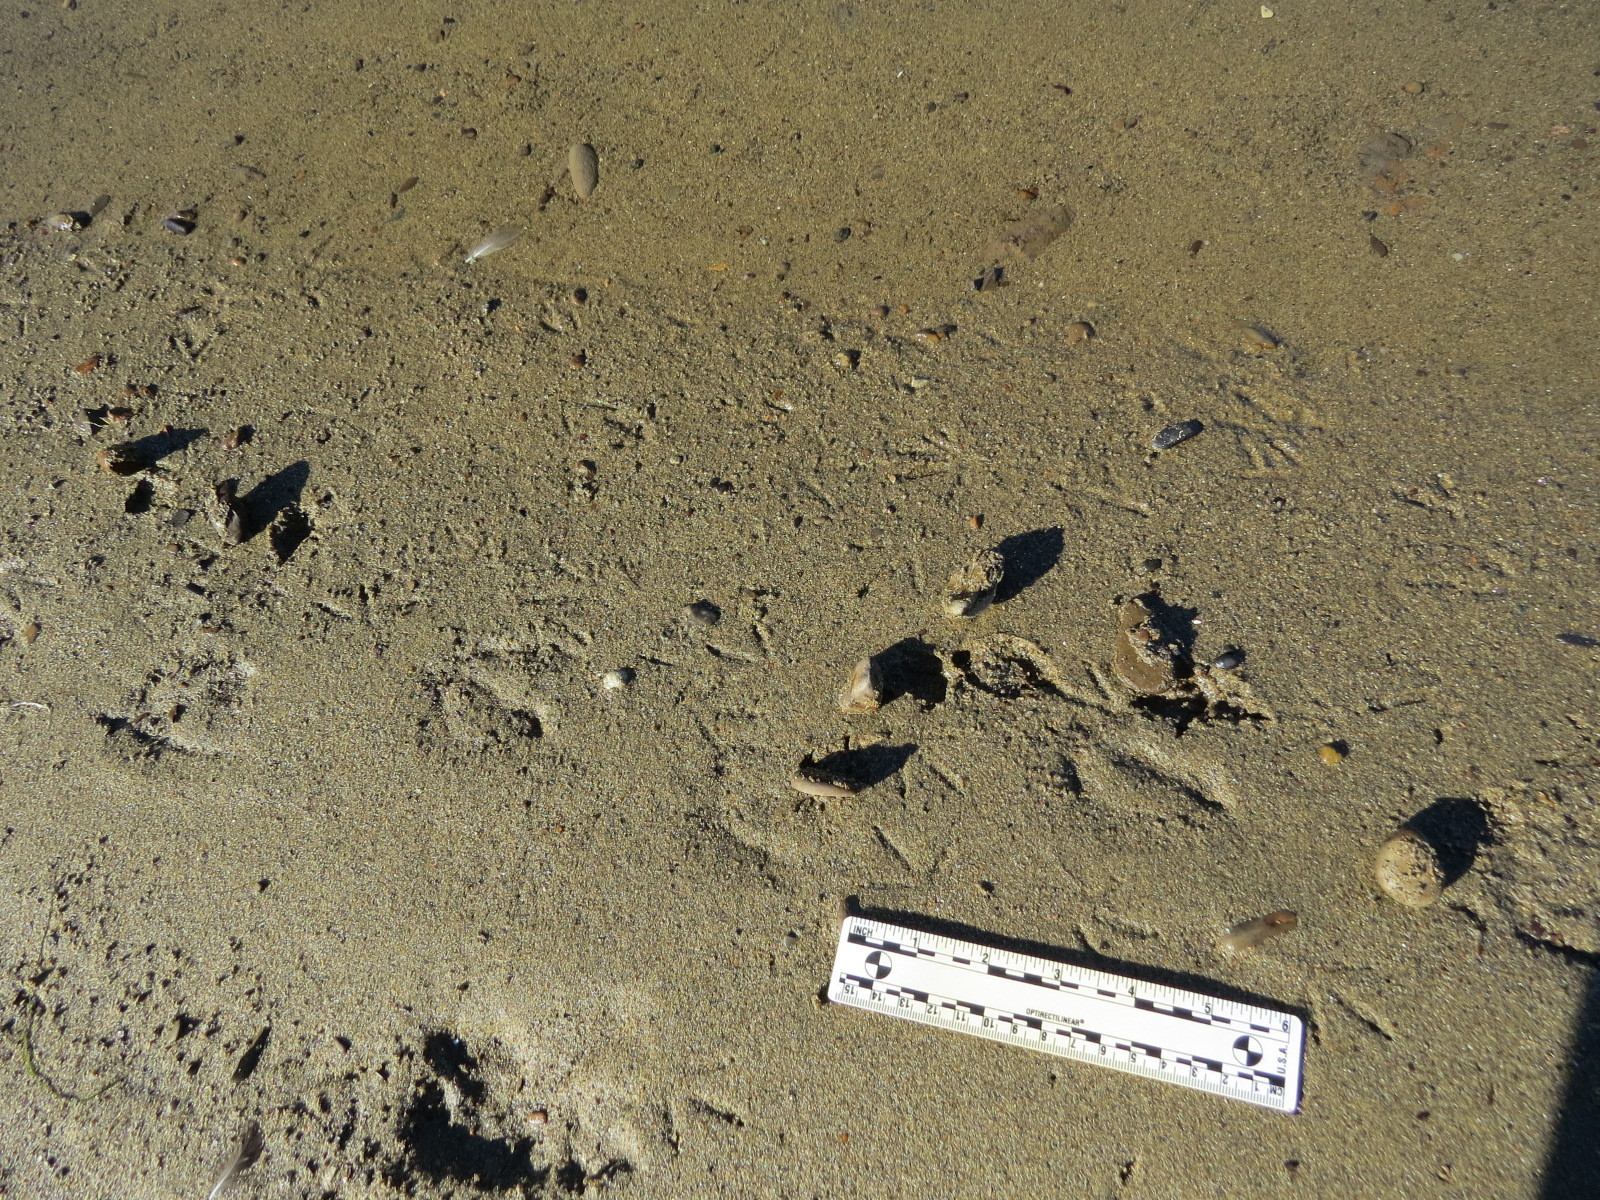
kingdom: Animalia
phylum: Chordata
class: Aves
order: Charadriiformes
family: Scolopacidae
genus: Arenaria
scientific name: Arenaria melanocephala
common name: Black turnstone
